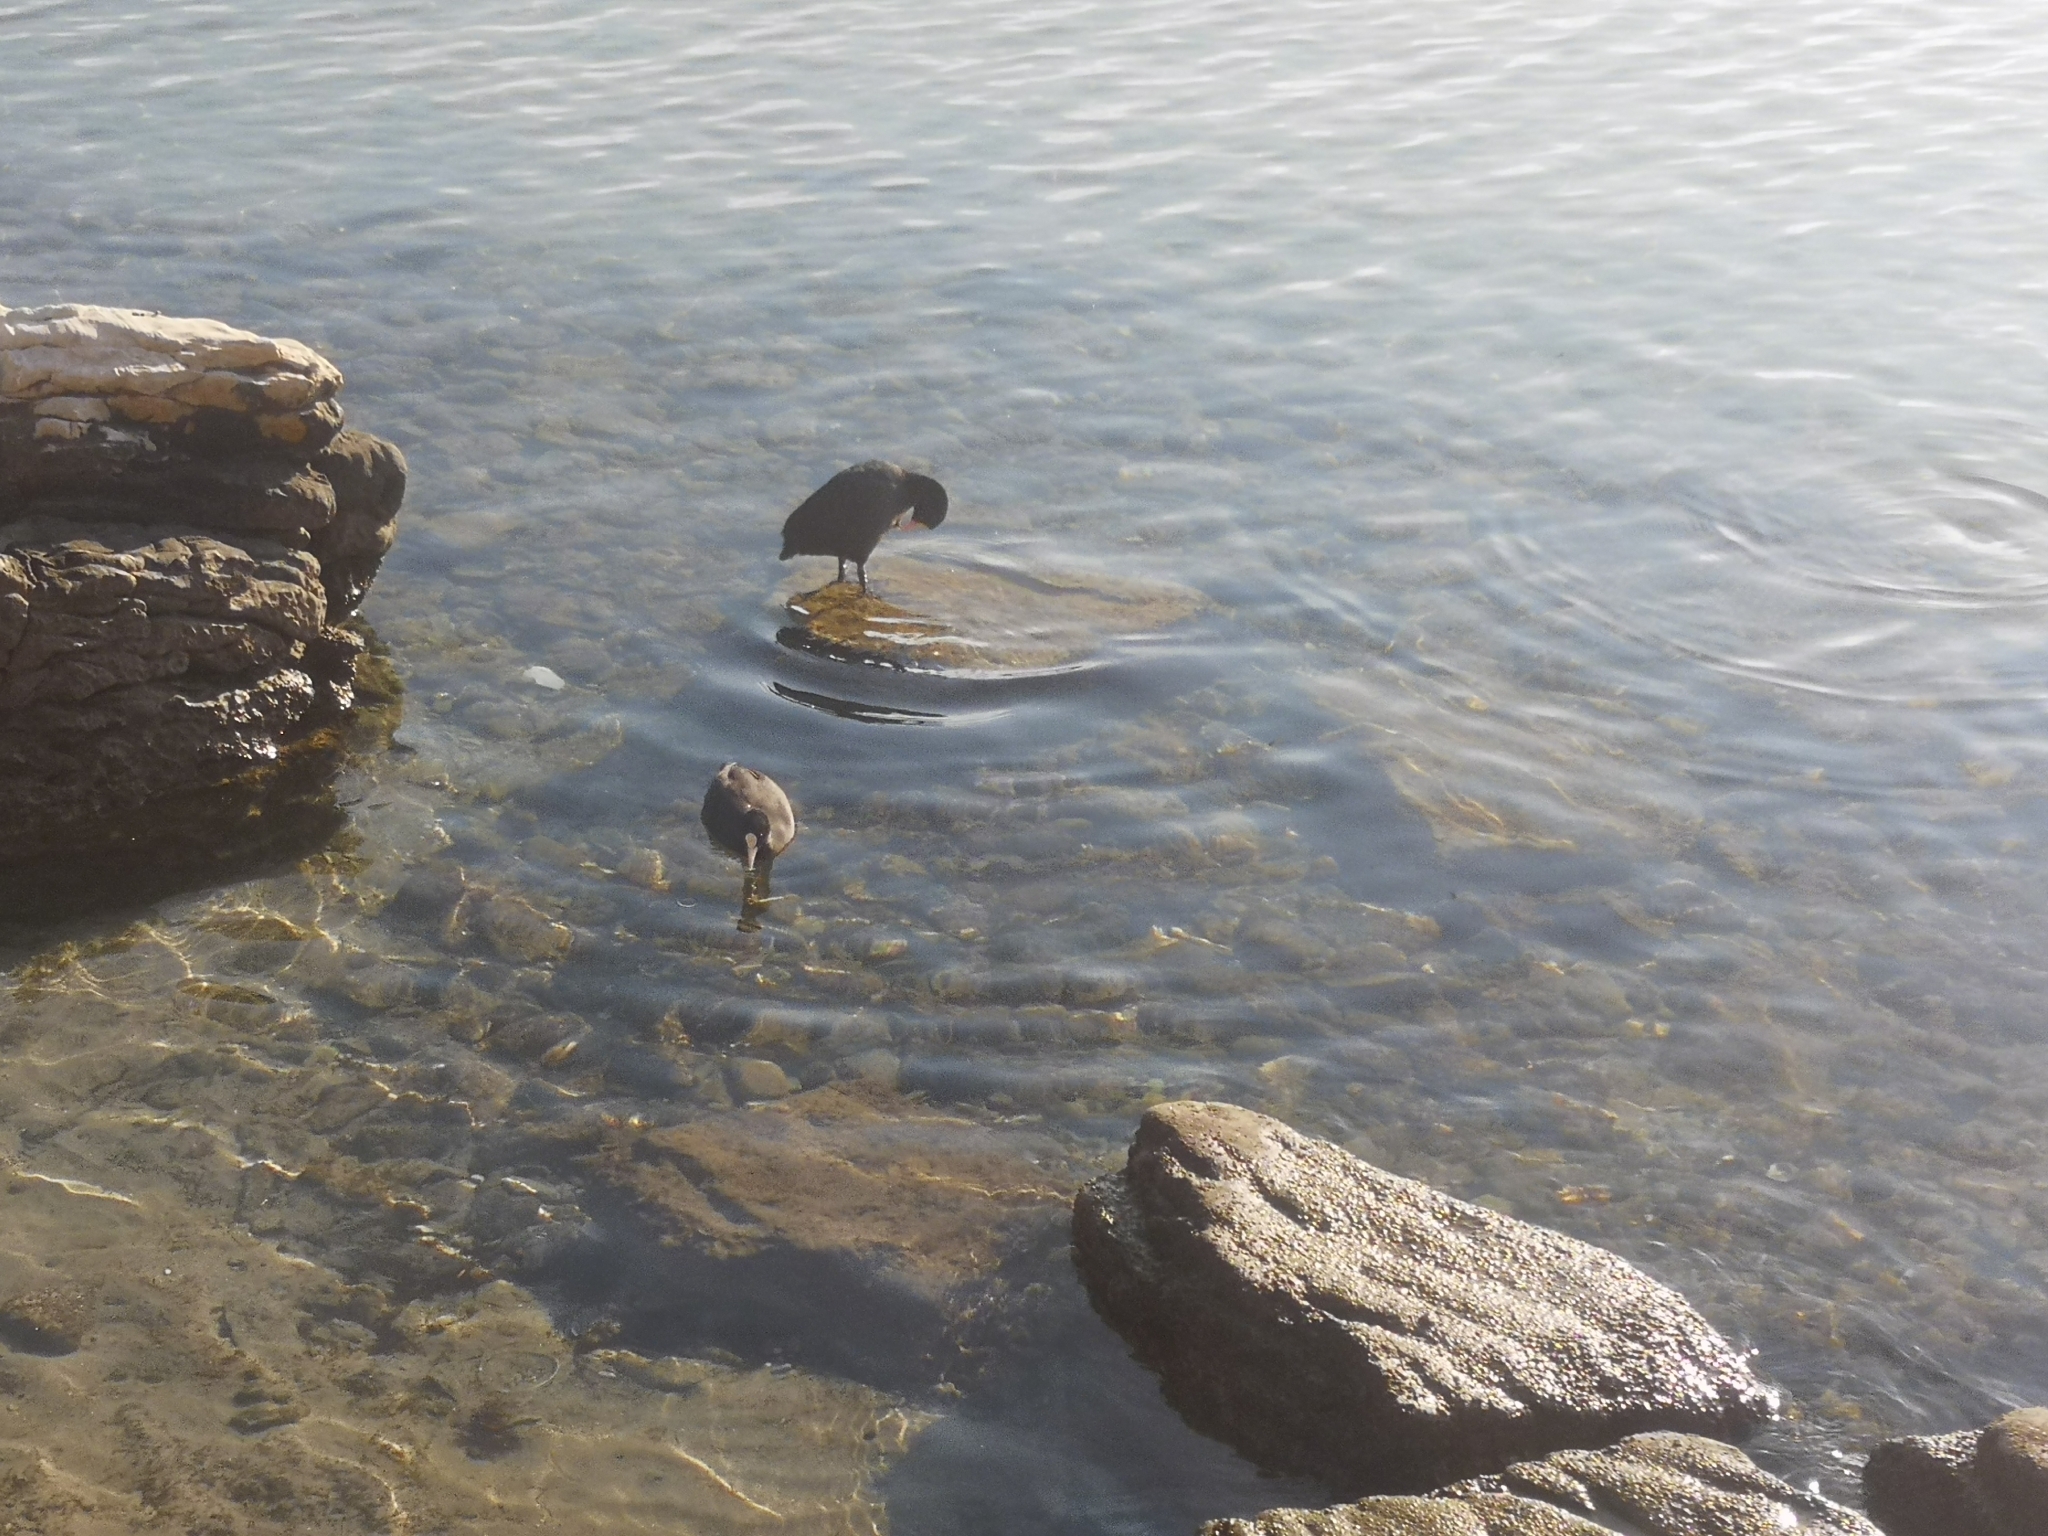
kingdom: Animalia
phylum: Chordata
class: Aves
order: Gruiformes
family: Rallidae
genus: Fulica
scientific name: Fulica atra
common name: Eurasian coot
